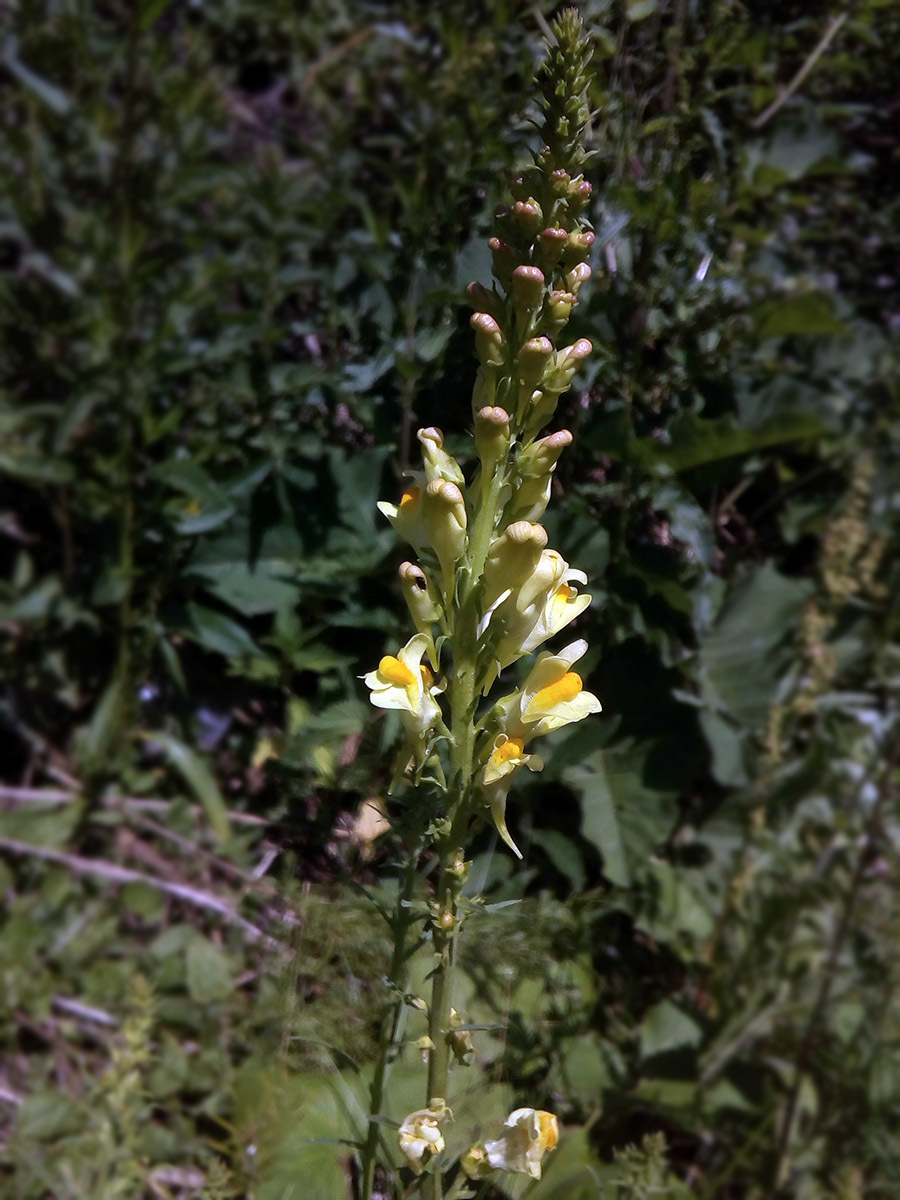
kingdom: Plantae
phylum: Tracheophyta
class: Magnoliopsida
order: Lamiales
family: Plantaginaceae
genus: Linaria
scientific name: Linaria vulgaris
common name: Butter and eggs
